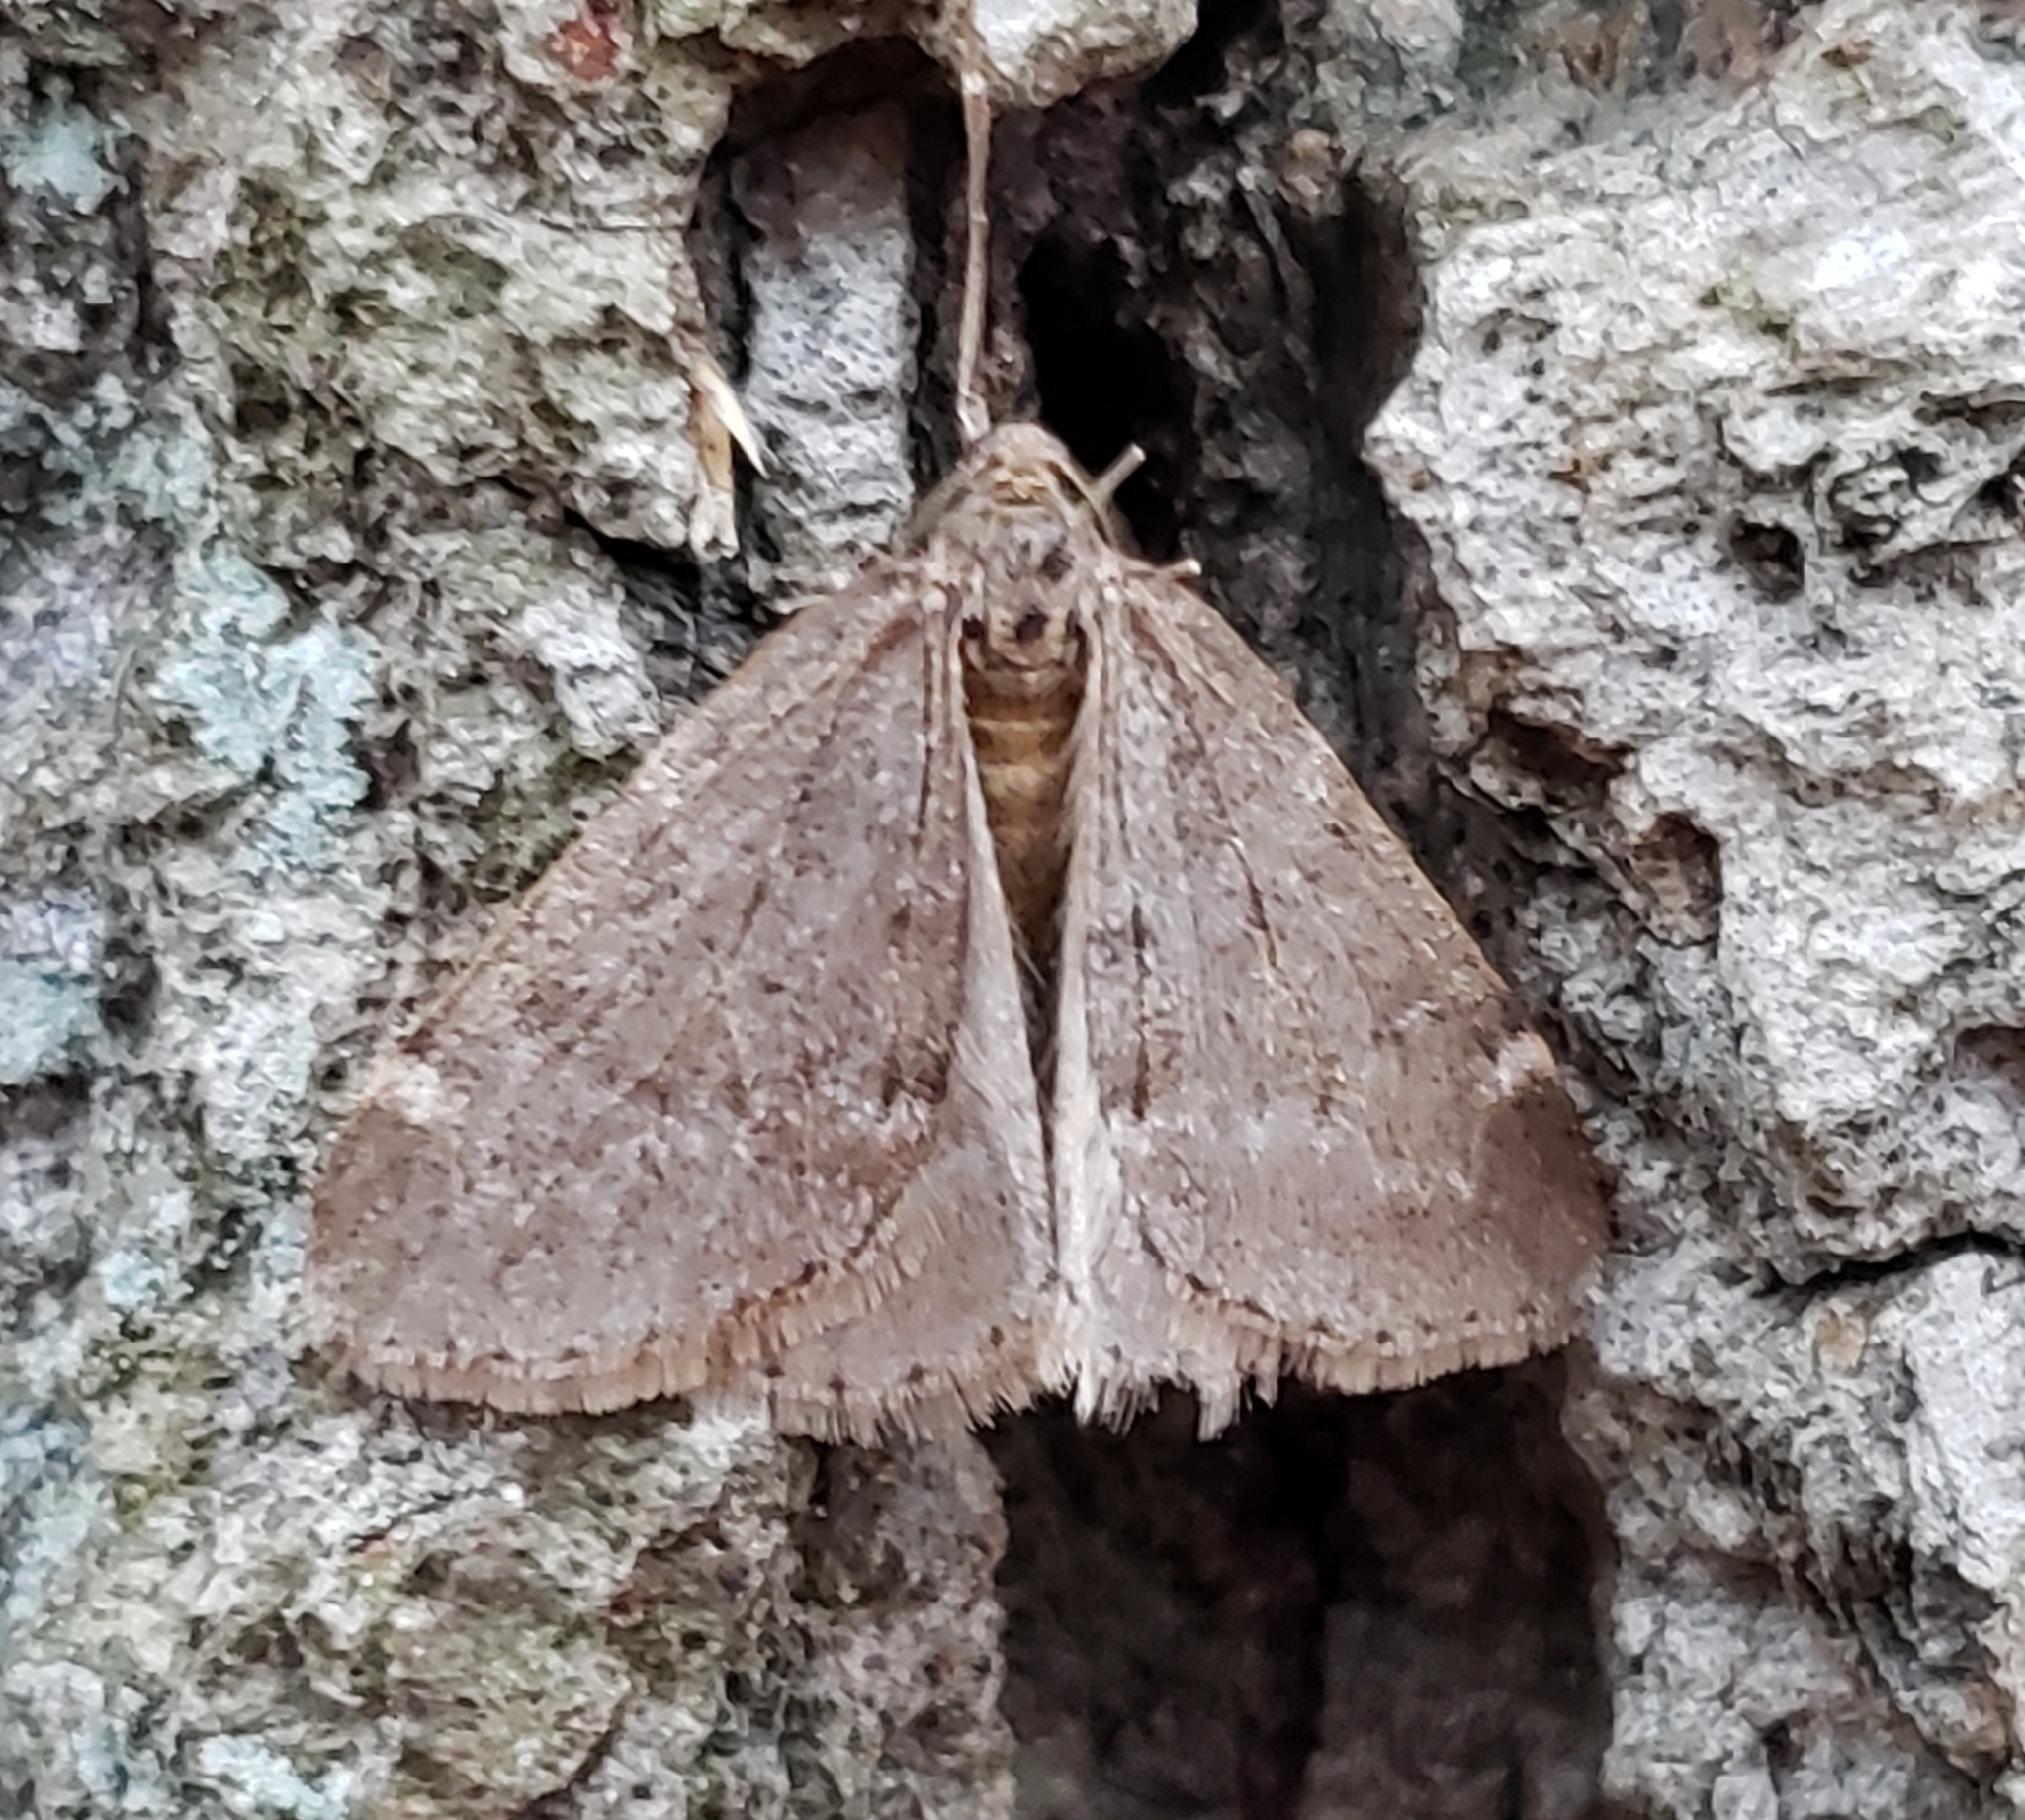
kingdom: Animalia
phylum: Arthropoda
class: Insecta
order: Lepidoptera
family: Geometridae
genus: Alsophila
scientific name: Alsophila pometaria
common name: Fall cankerworm
